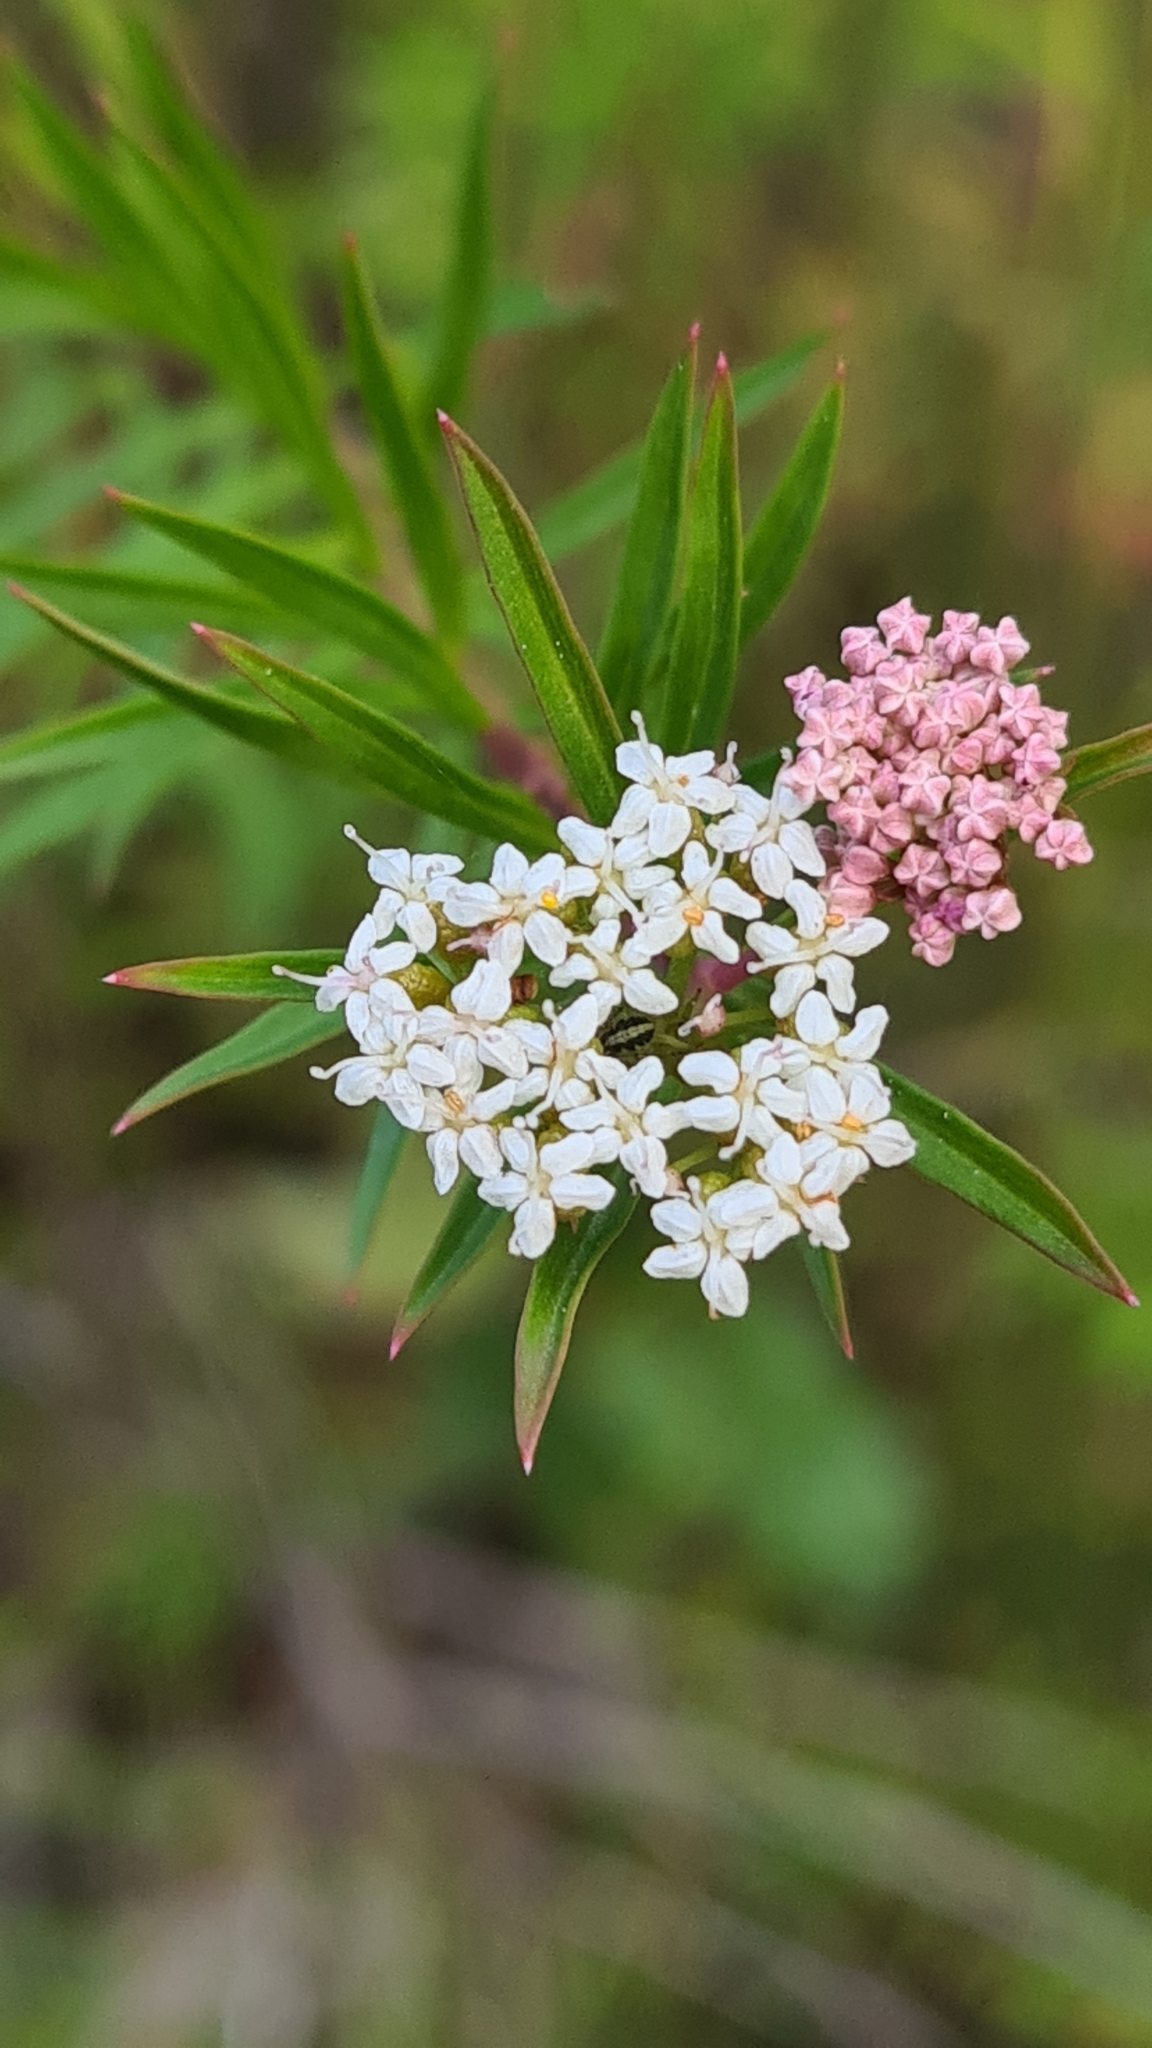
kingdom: Plantae
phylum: Tracheophyta
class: Magnoliopsida
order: Apiales
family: Apiaceae
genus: Platysace
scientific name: Platysace lanceolata
